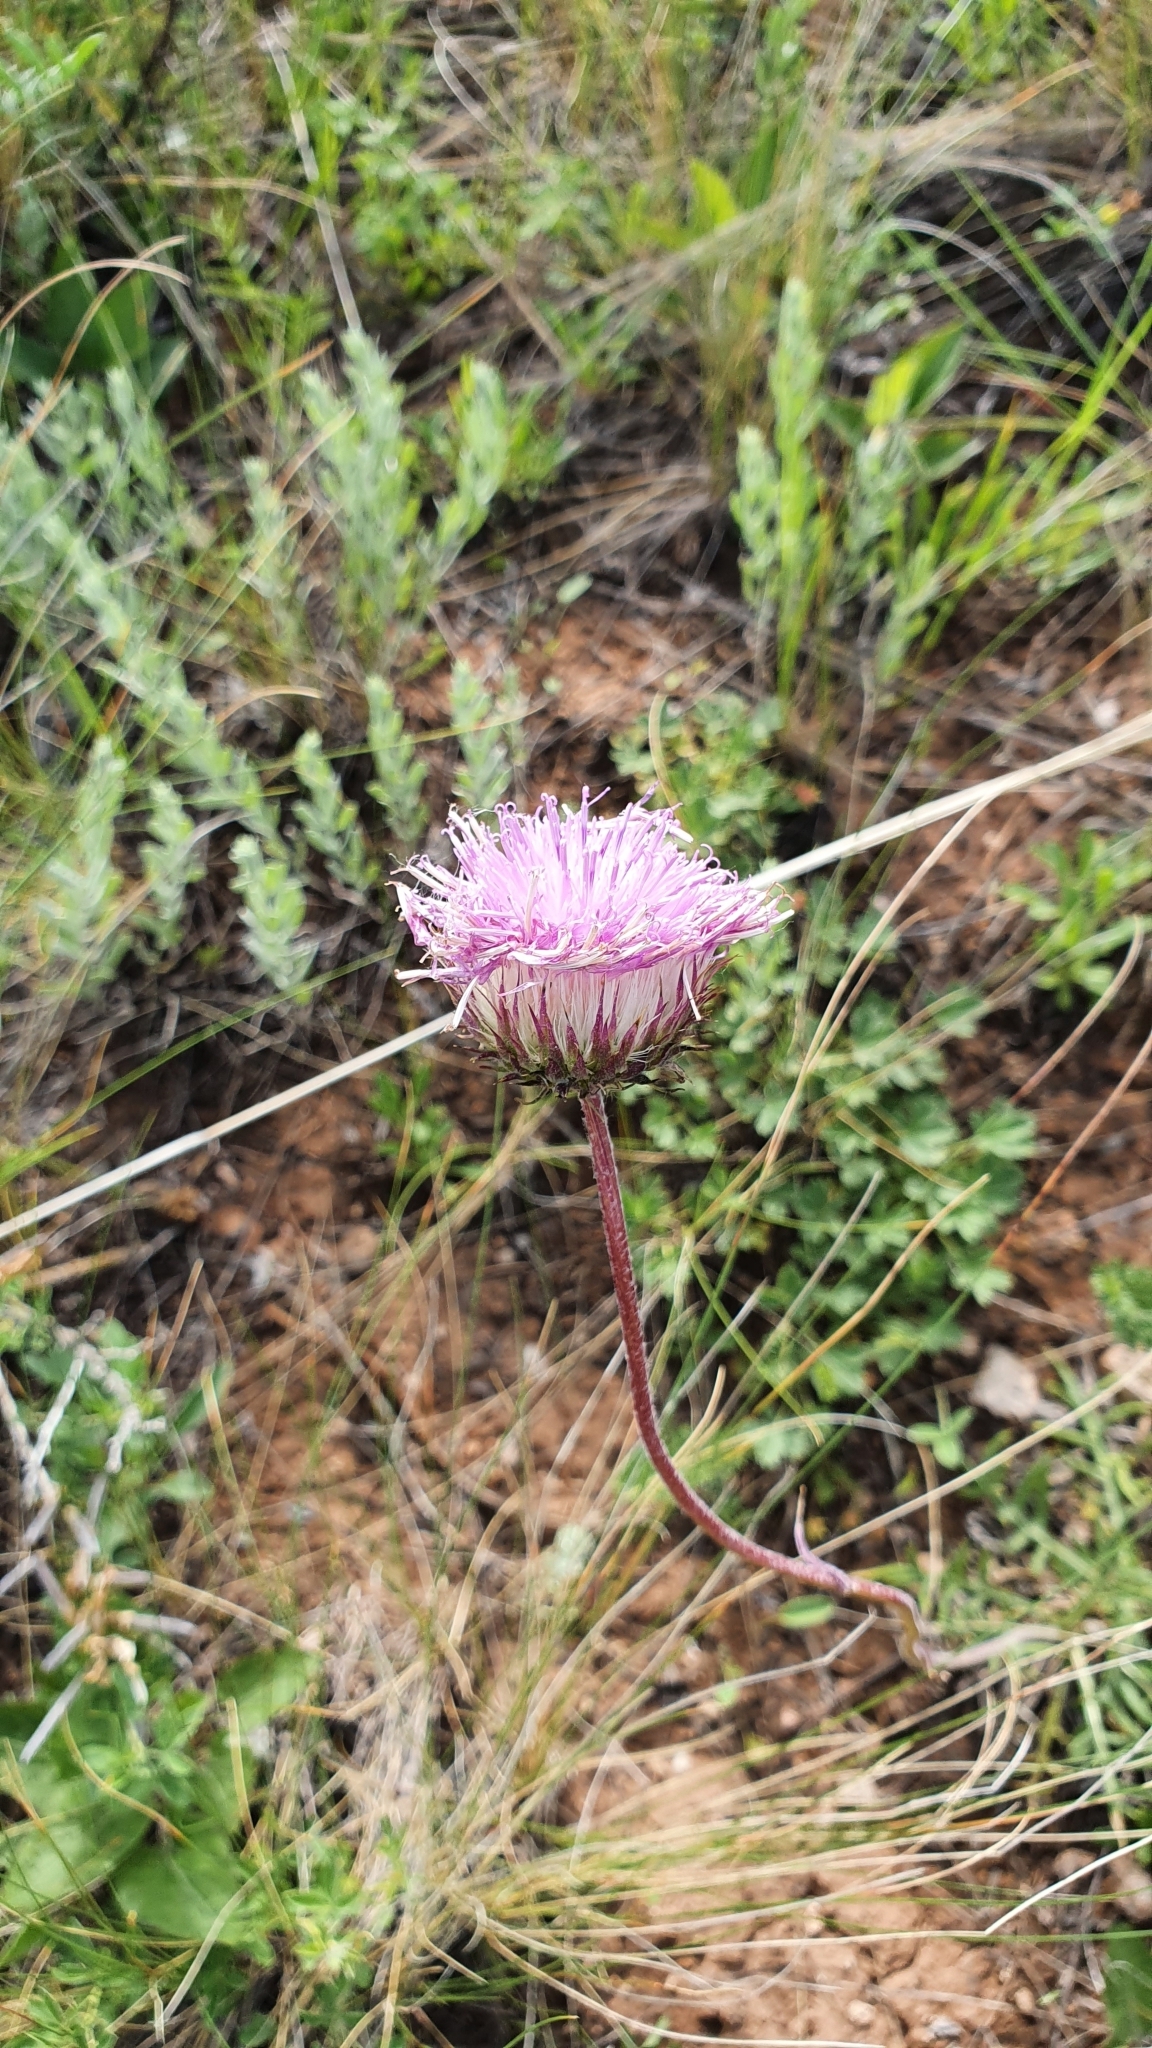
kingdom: Plantae
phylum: Tracheophyta
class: Magnoliopsida
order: Asterales
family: Asteraceae
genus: Jurinea
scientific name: Jurinea ledebourii
